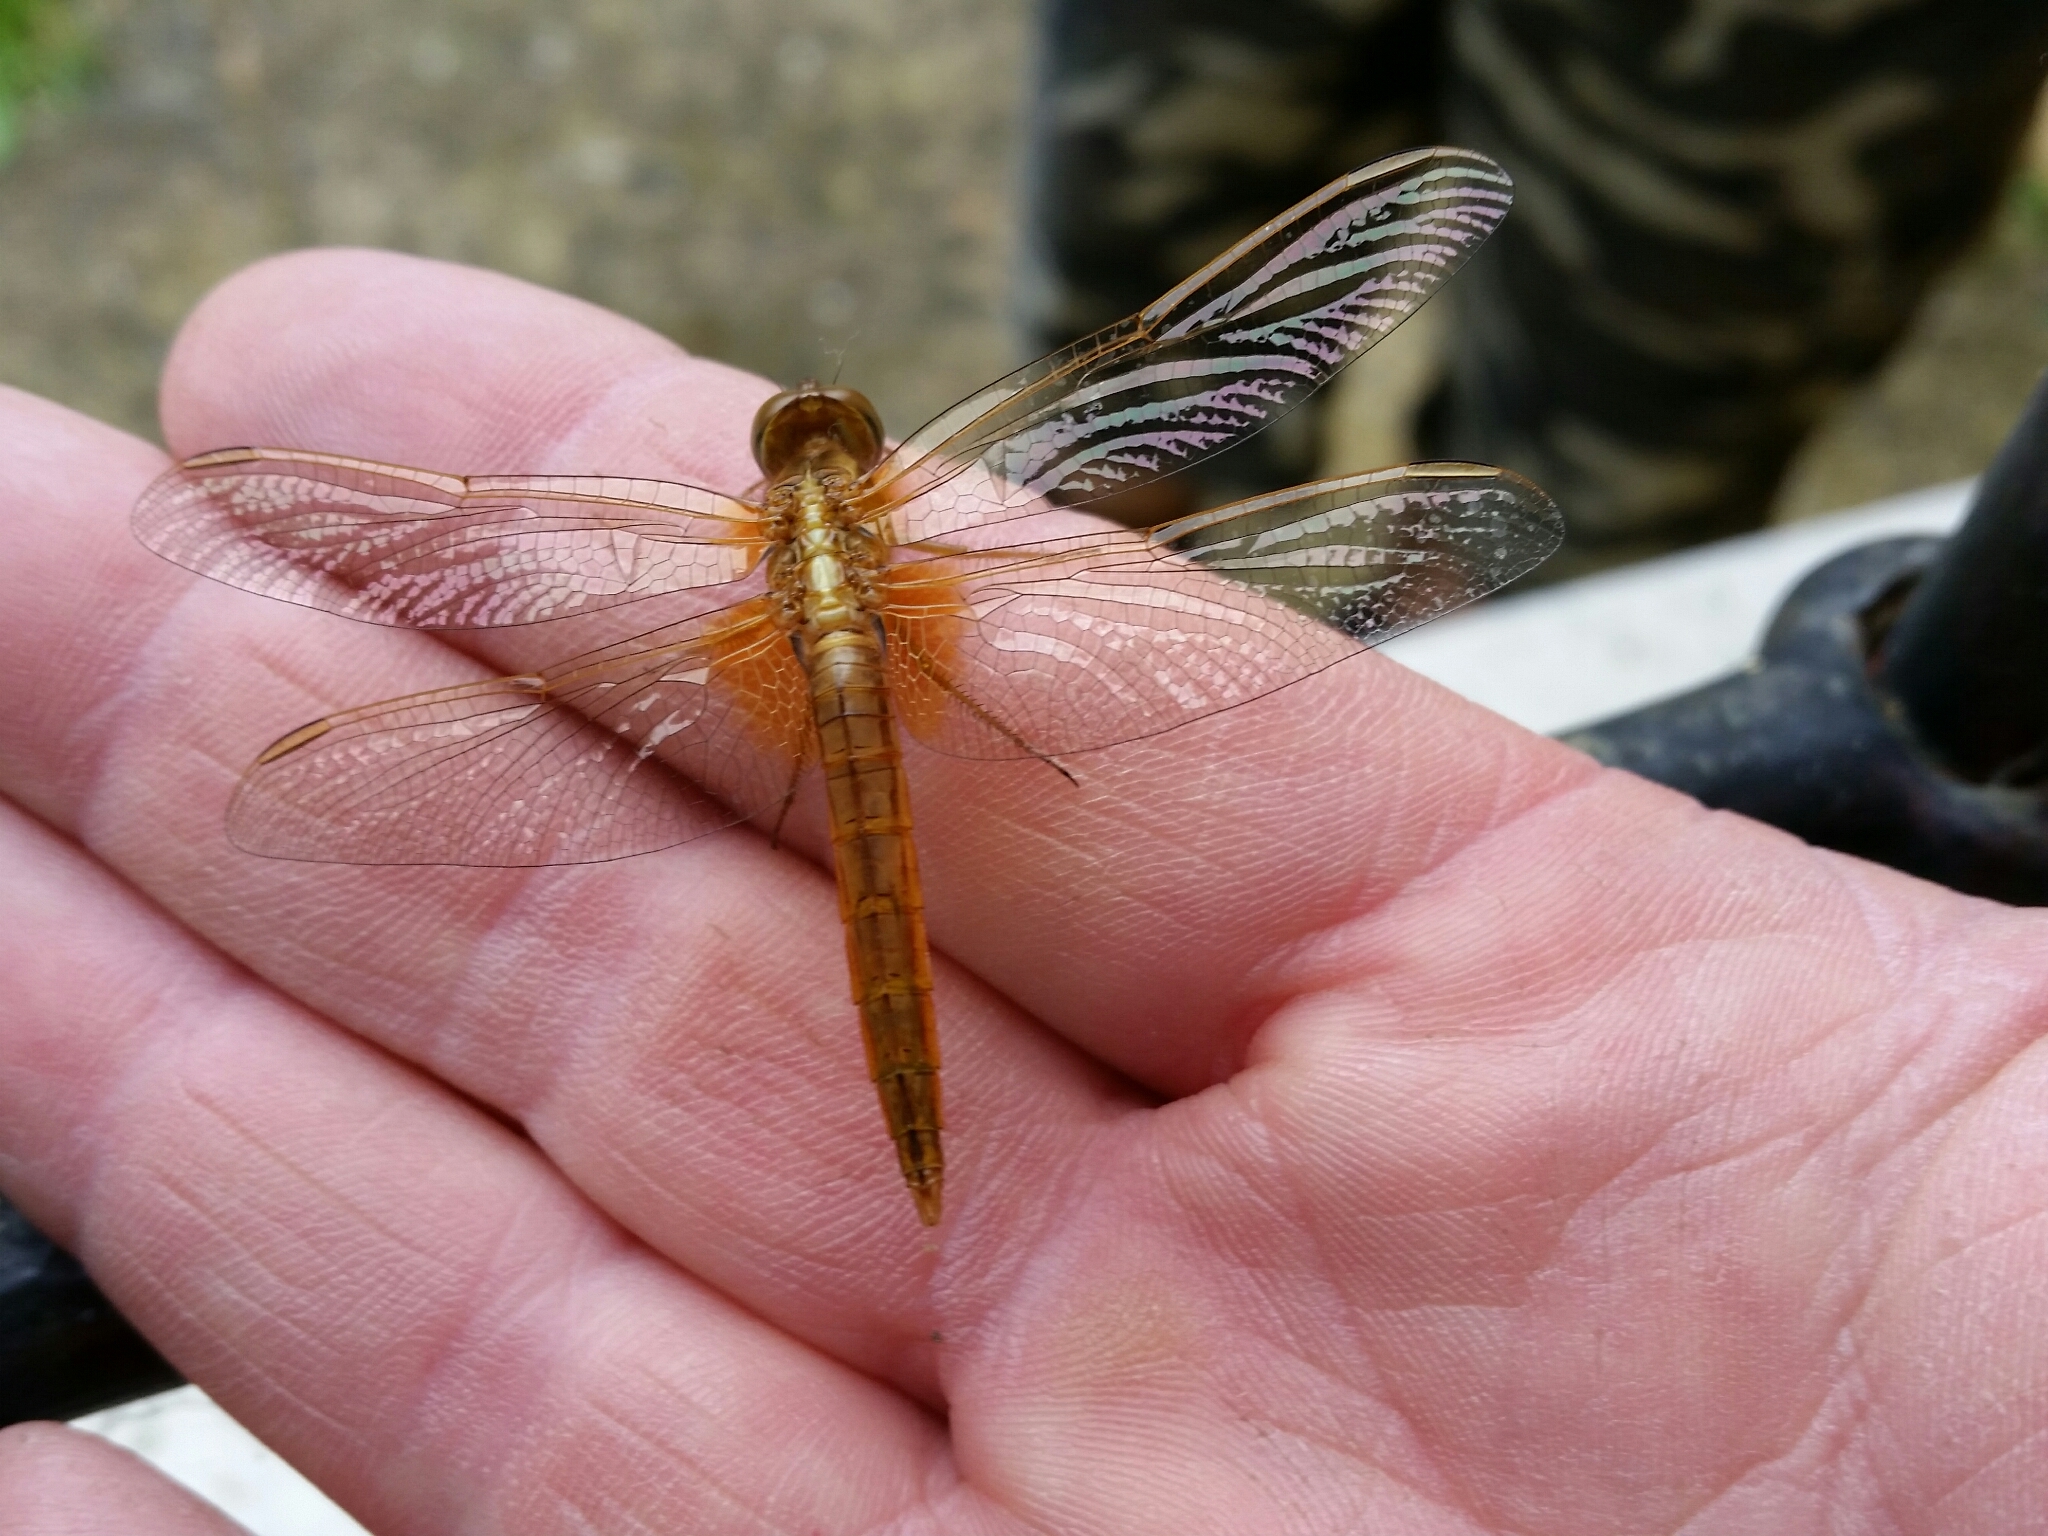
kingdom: Animalia
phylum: Arthropoda
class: Insecta
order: Odonata
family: Libellulidae
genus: Crocothemis
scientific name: Crocothemis erythraea
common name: Scarlet dragonfly
